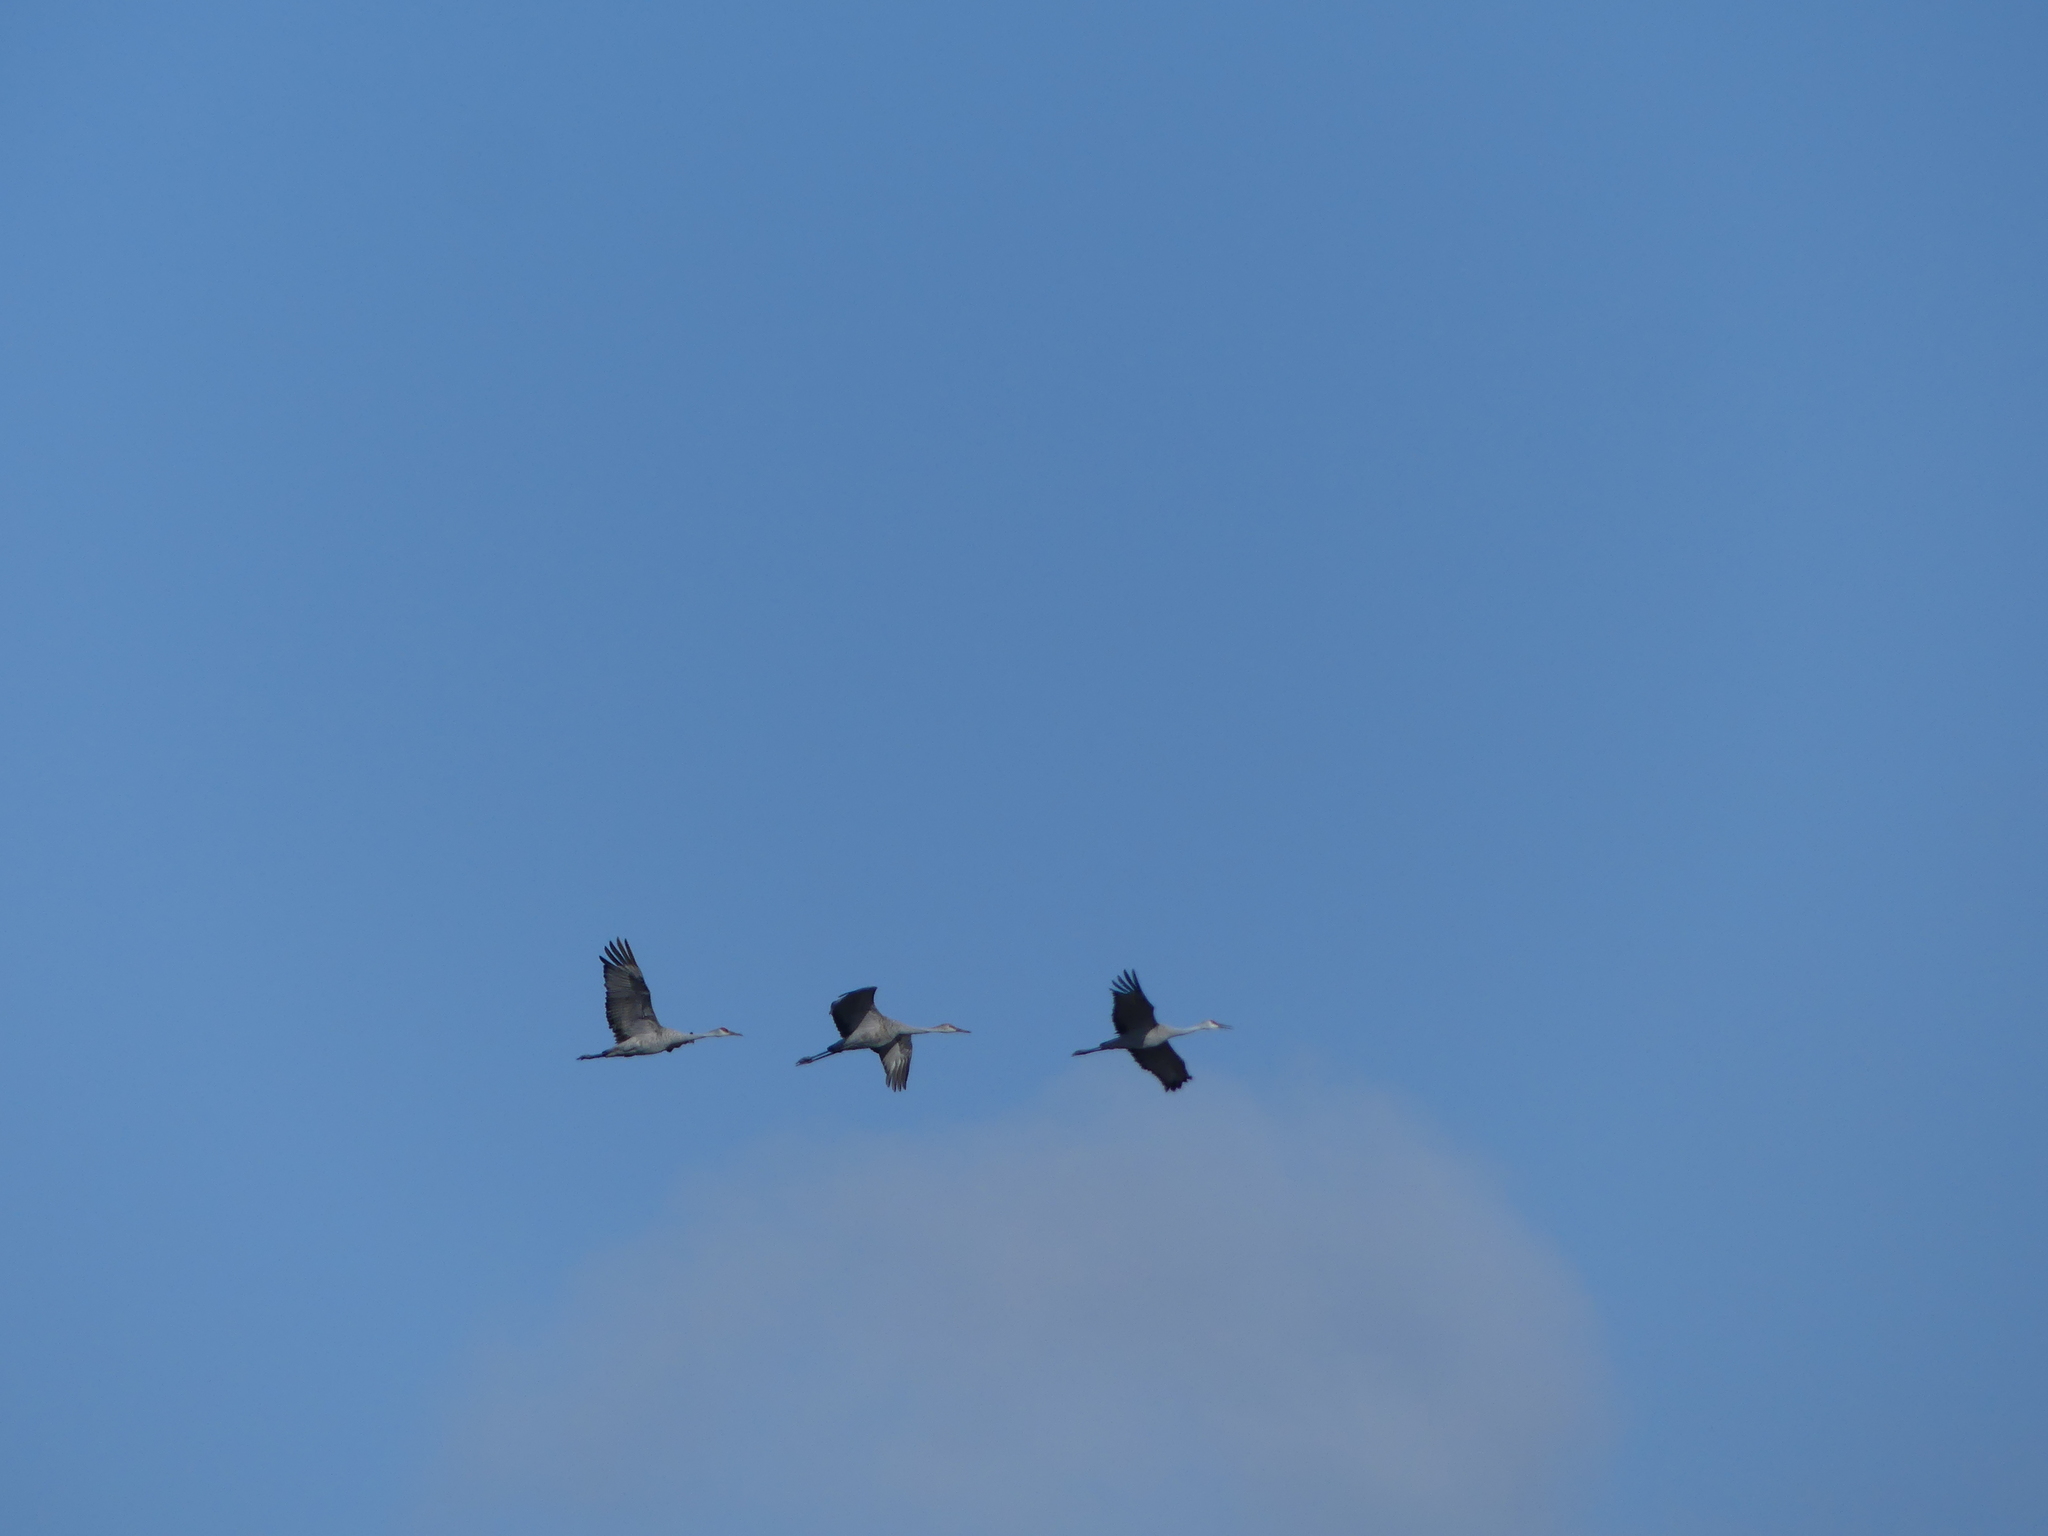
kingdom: Animalia
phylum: Chordata
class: Aves
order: Gruiformes
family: Gruidae
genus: Grus
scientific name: Grus canadensis
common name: Sandhill crane
